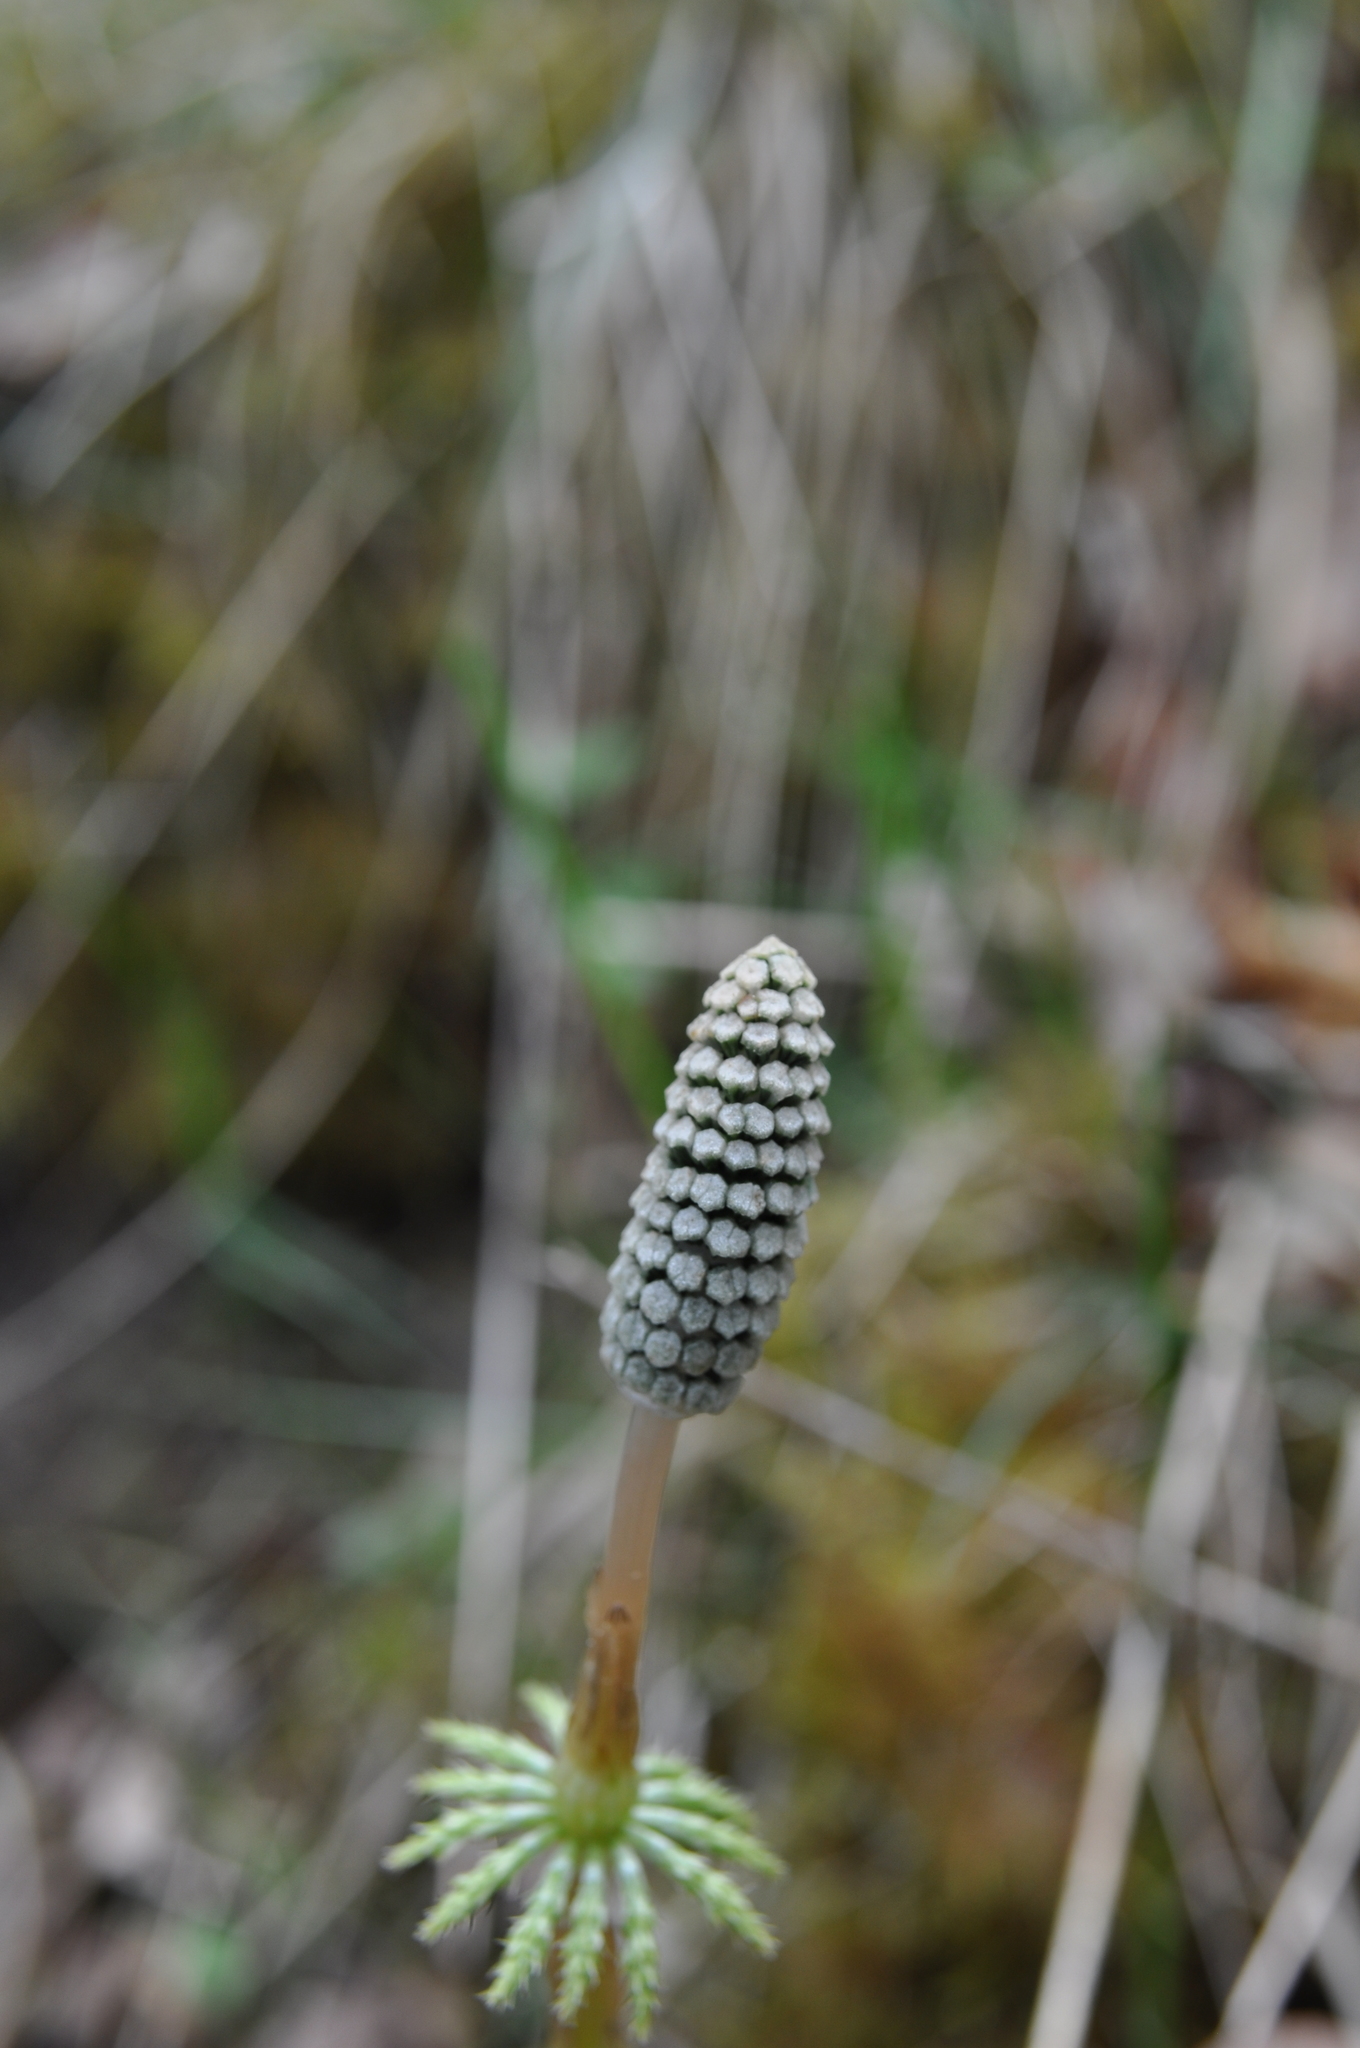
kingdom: Plantae
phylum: Tracheophyta
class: Polypodiopsida
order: Equisetales
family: Equisetaceae
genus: Equisetum
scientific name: Equisetum sylvaticum
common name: Wood horsetail
